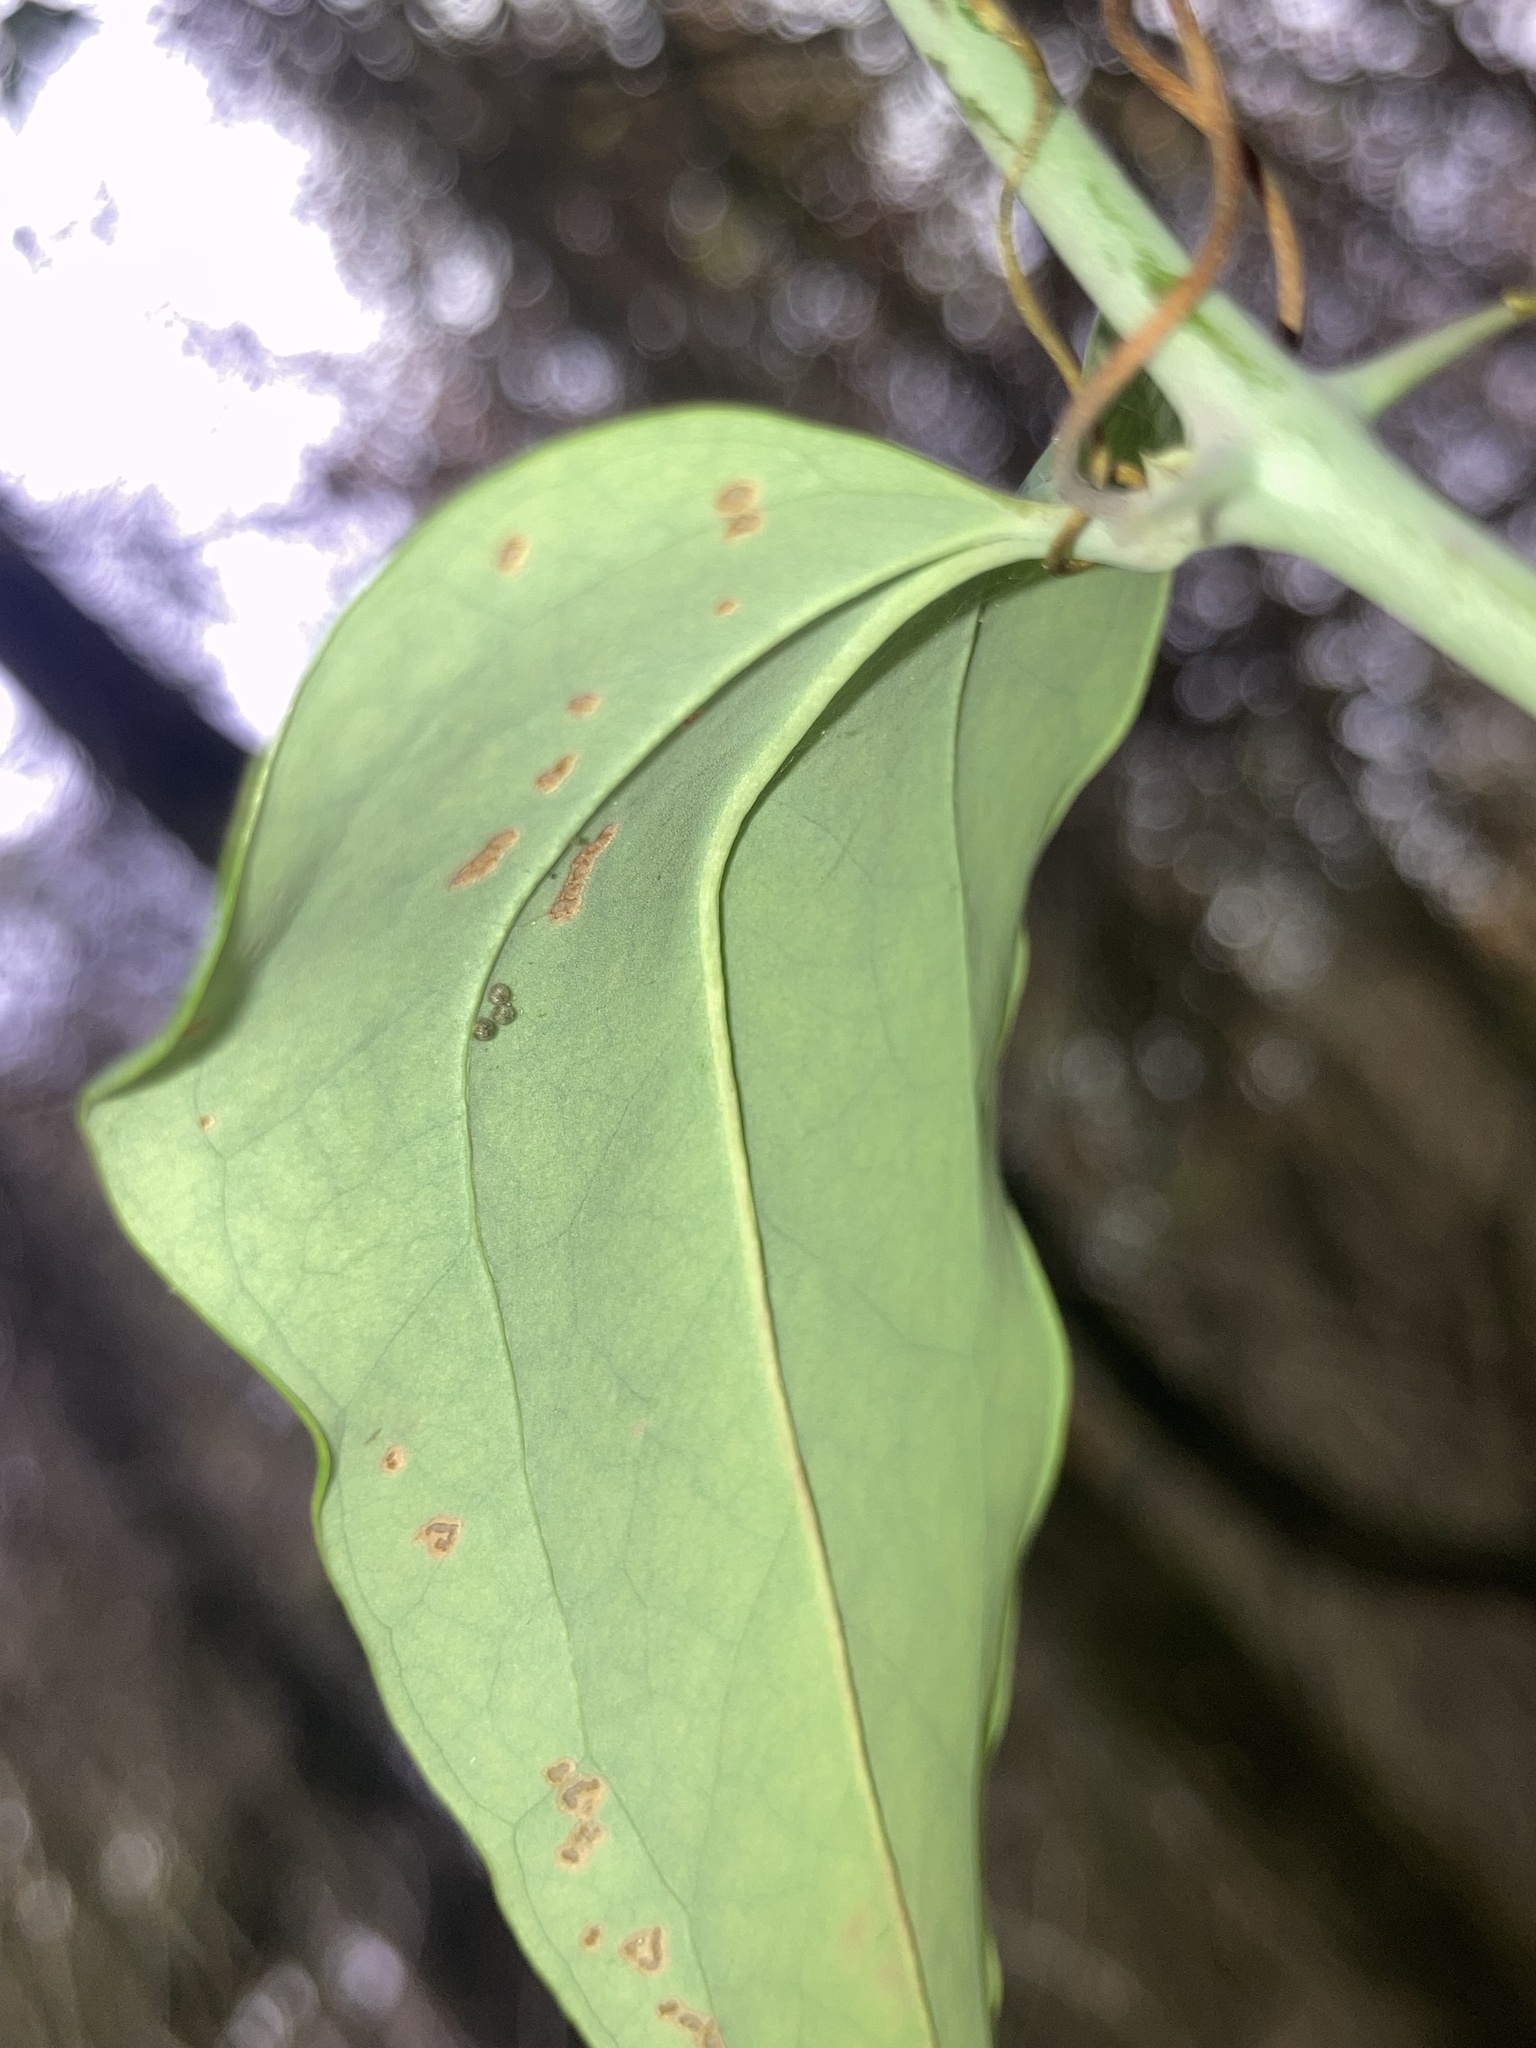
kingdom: Plantae
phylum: Tracheophyta
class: Liliopsida
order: Liliales
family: Smilacaceae
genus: Smilax
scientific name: Smilax glauca
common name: Cat greenbrier
